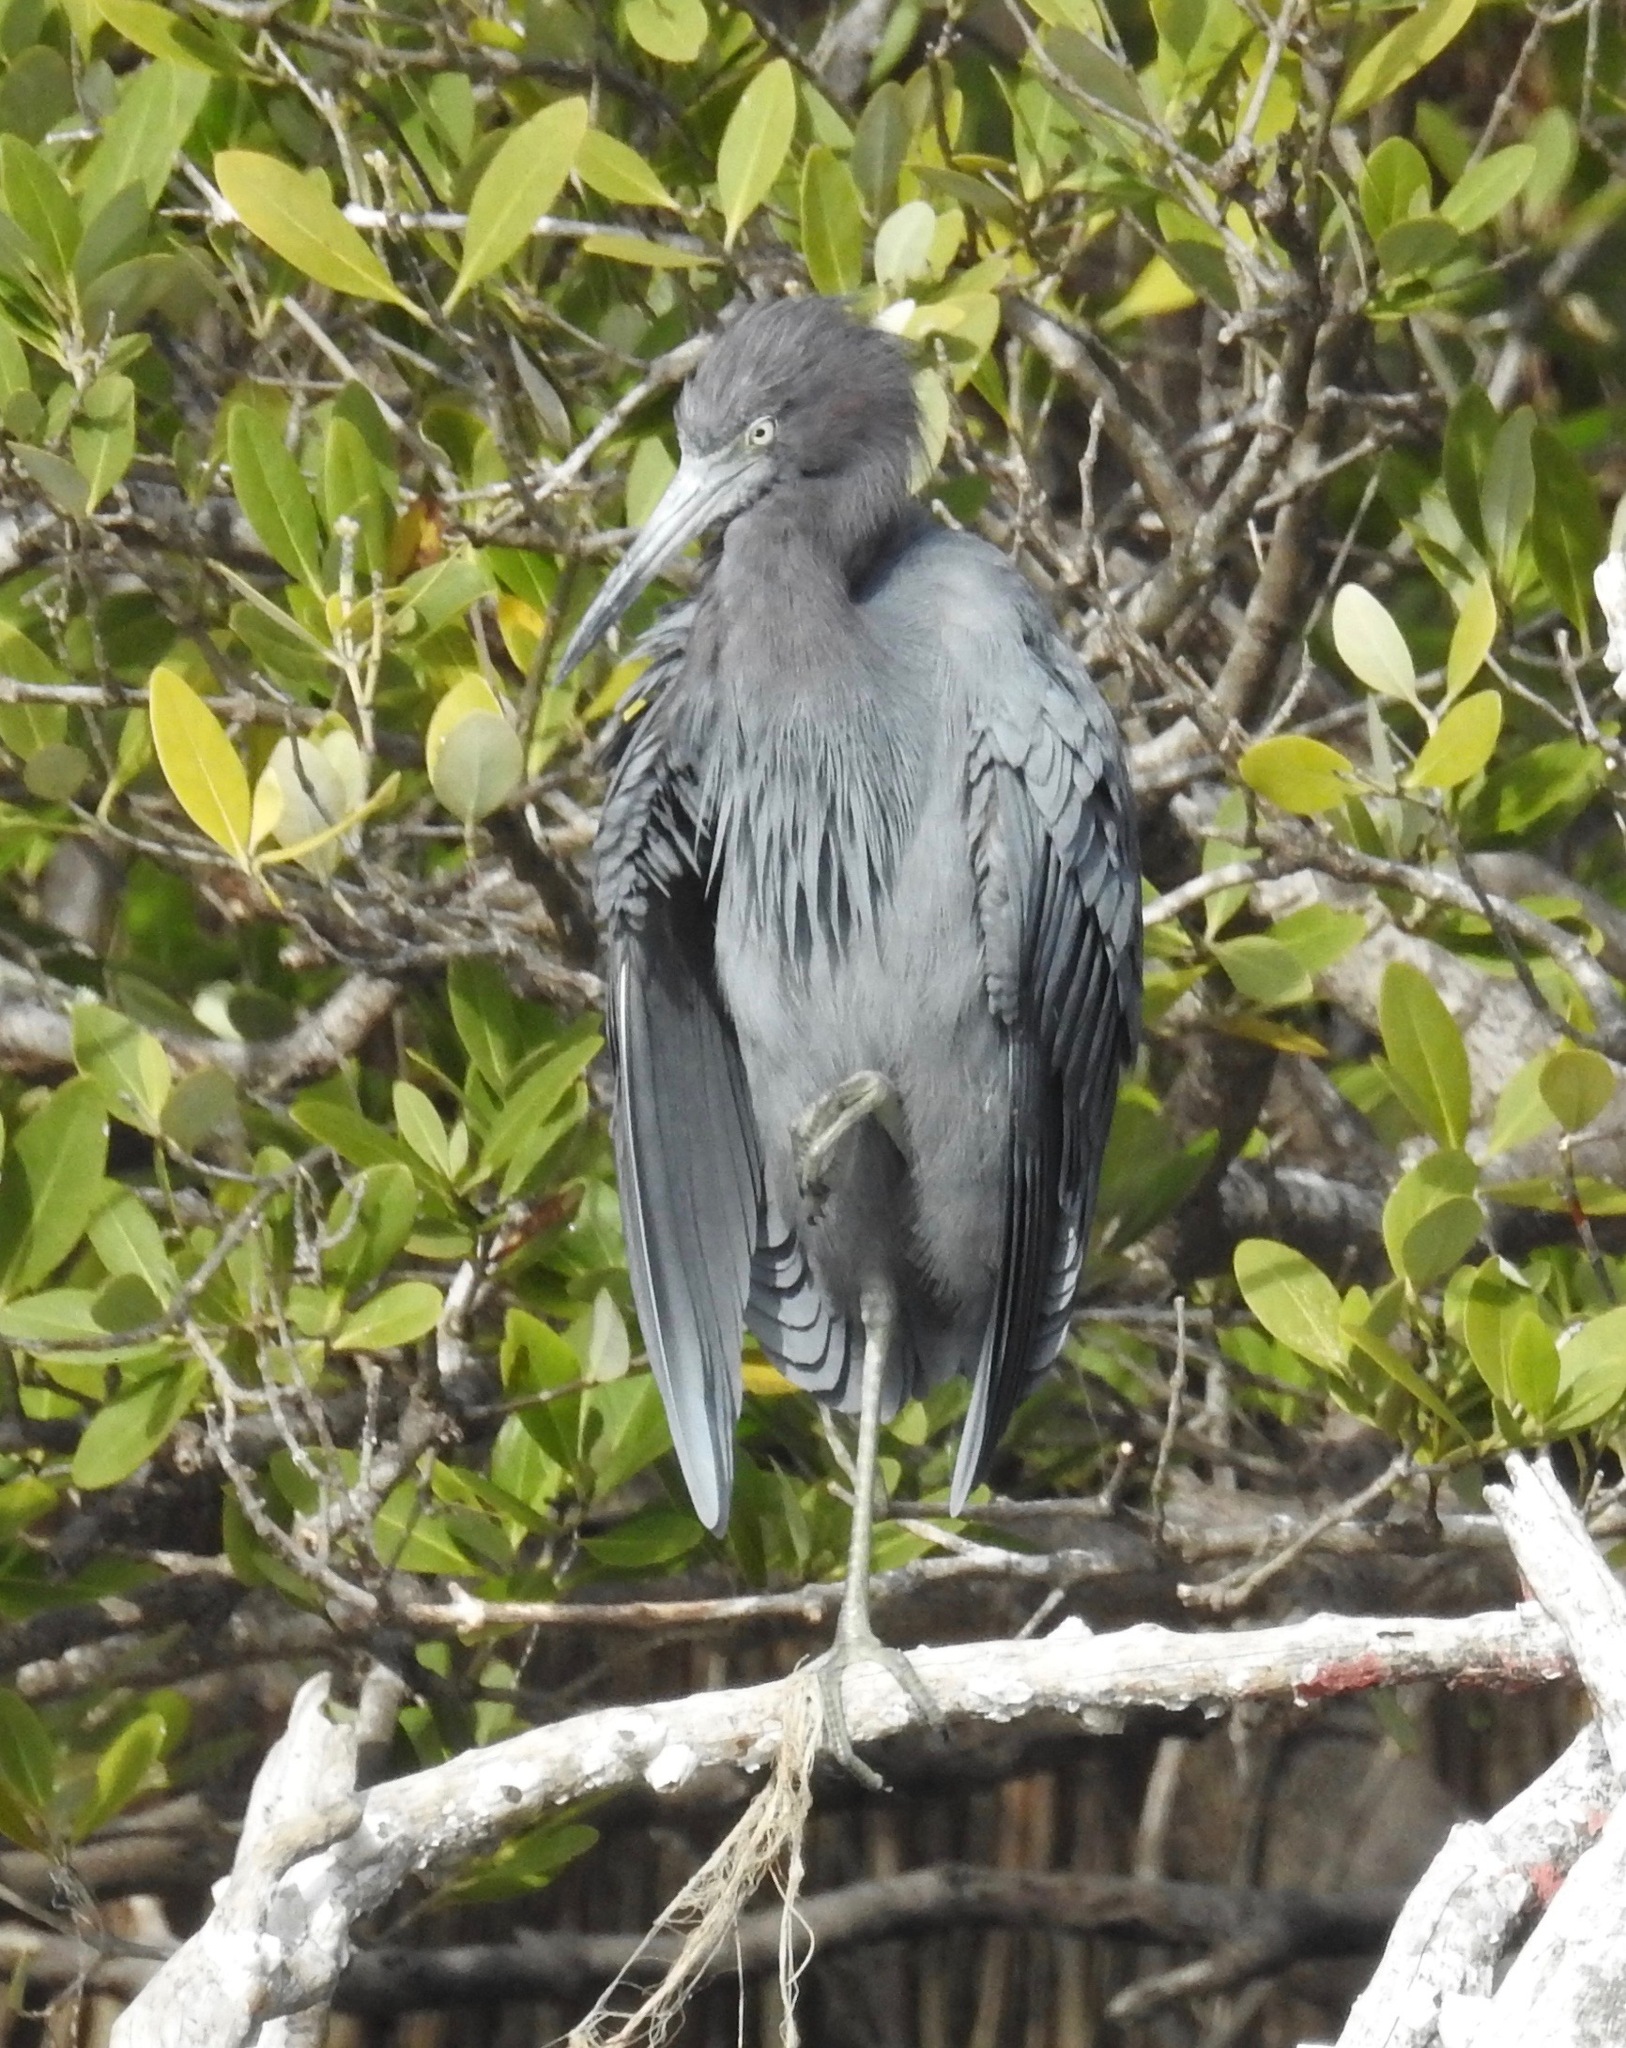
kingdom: Animalia
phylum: Chordata
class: Aves
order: Pelecaniformes
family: Ardeidae
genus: Egretta
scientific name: Egretta caerulea
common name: Little blue heron
